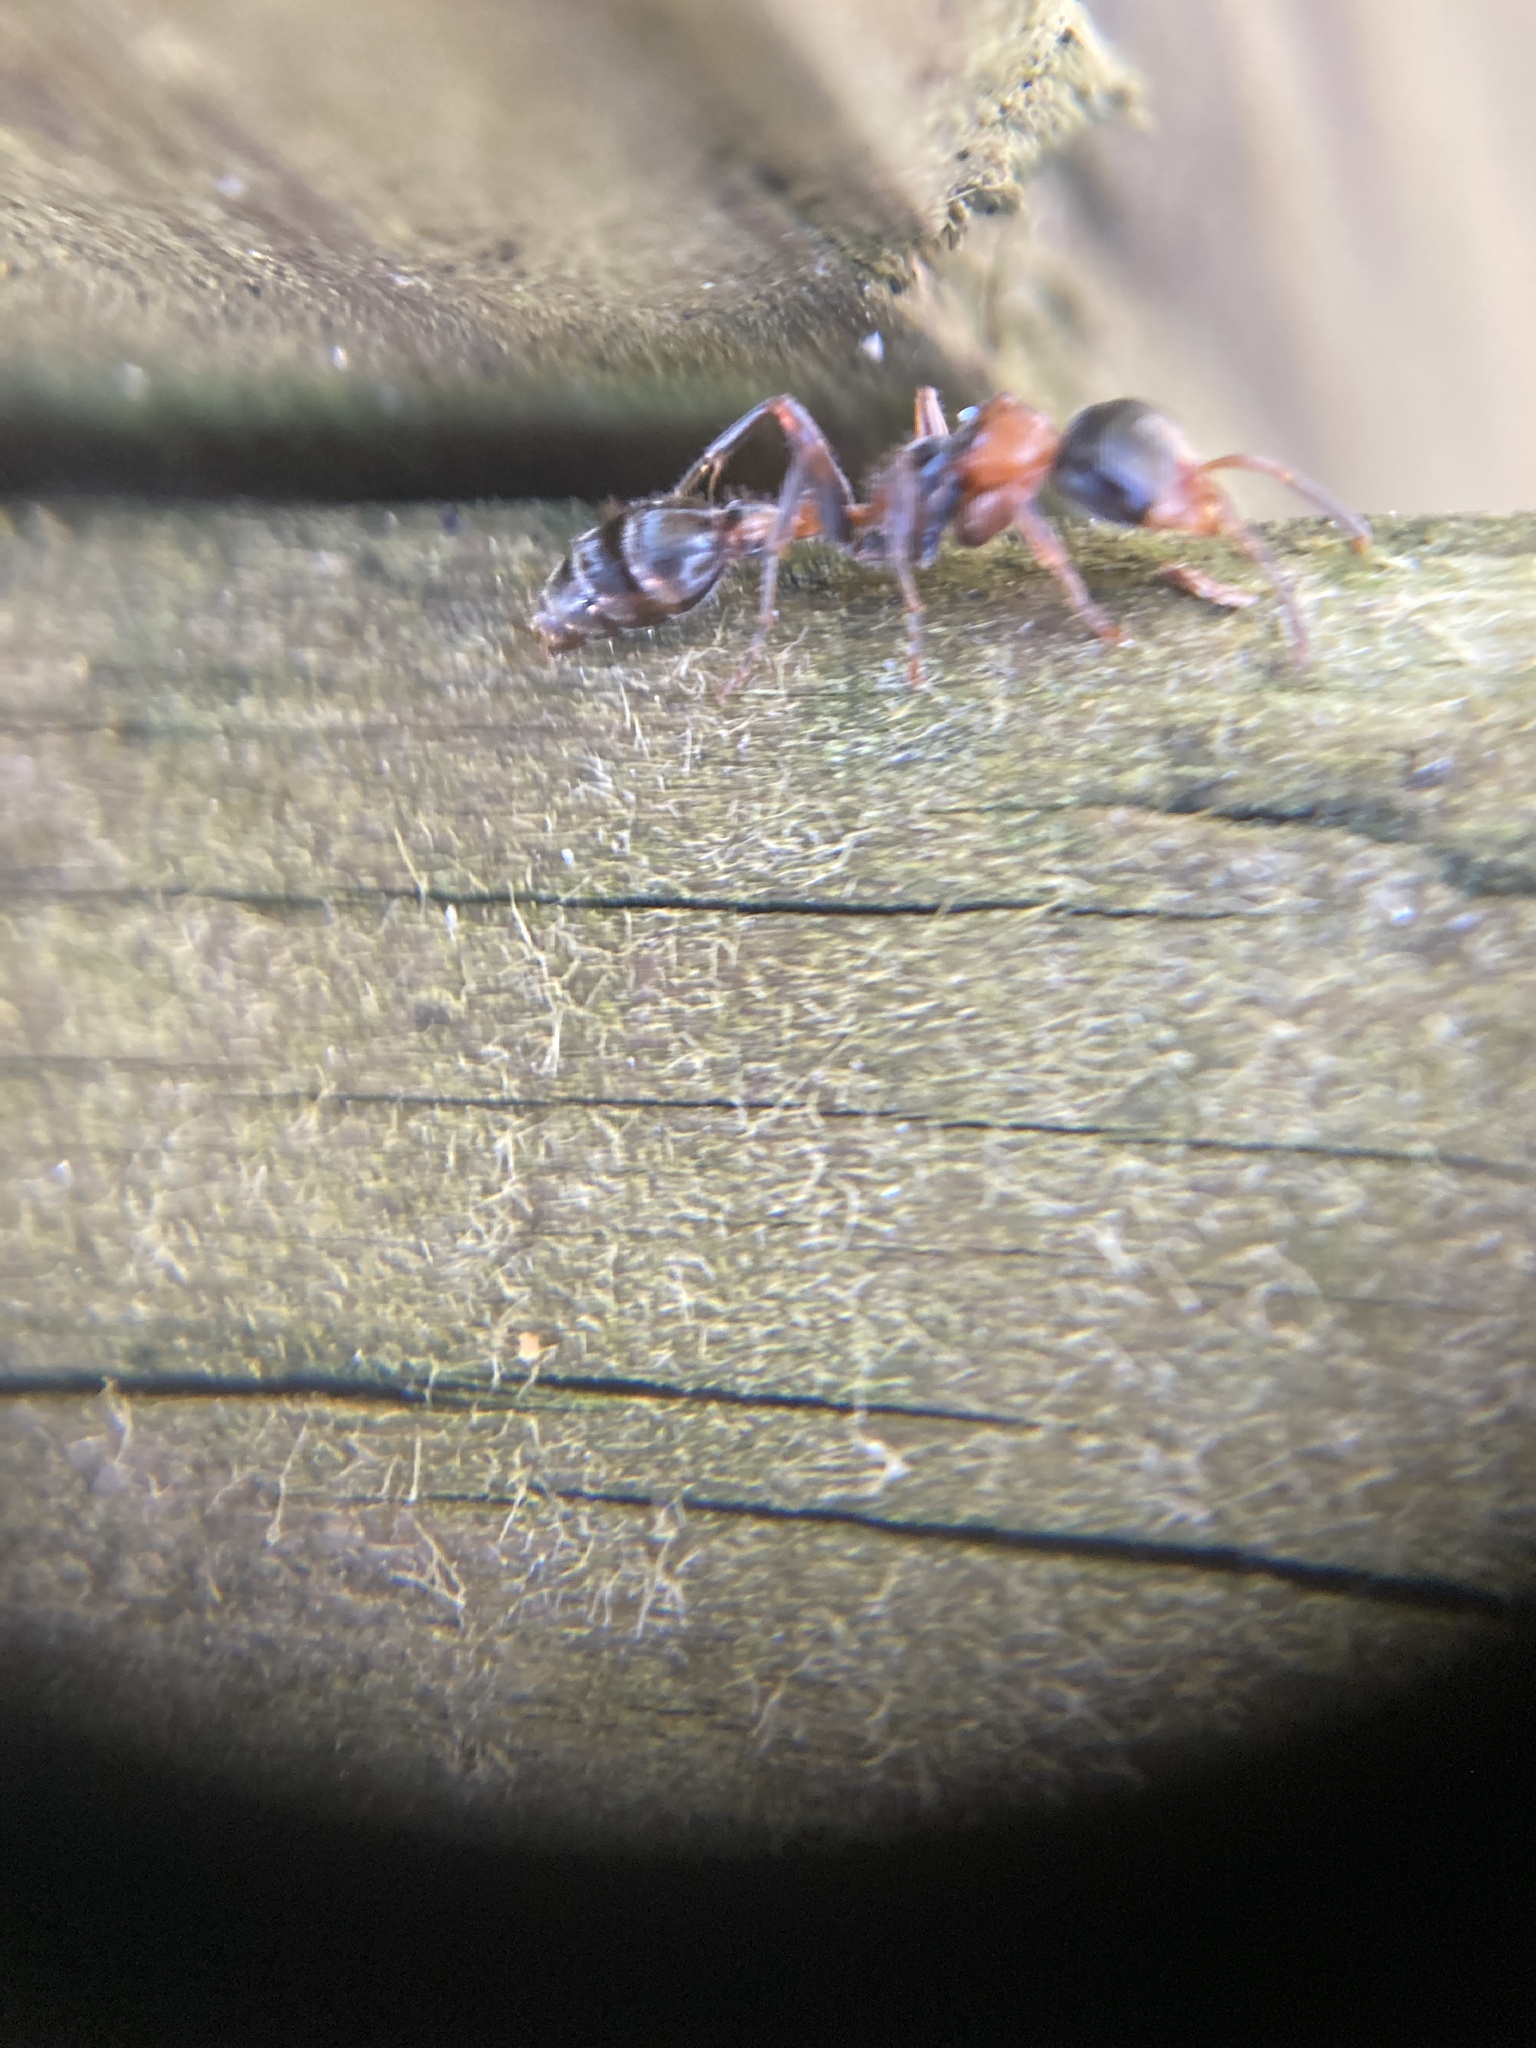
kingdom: Animalia
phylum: Arthropoda
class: Insecta
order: Hymenoptera
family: Formicidae
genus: Pseudomyrmex
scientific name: Pseudomyrmex gracilis
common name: Graceful twig ant
